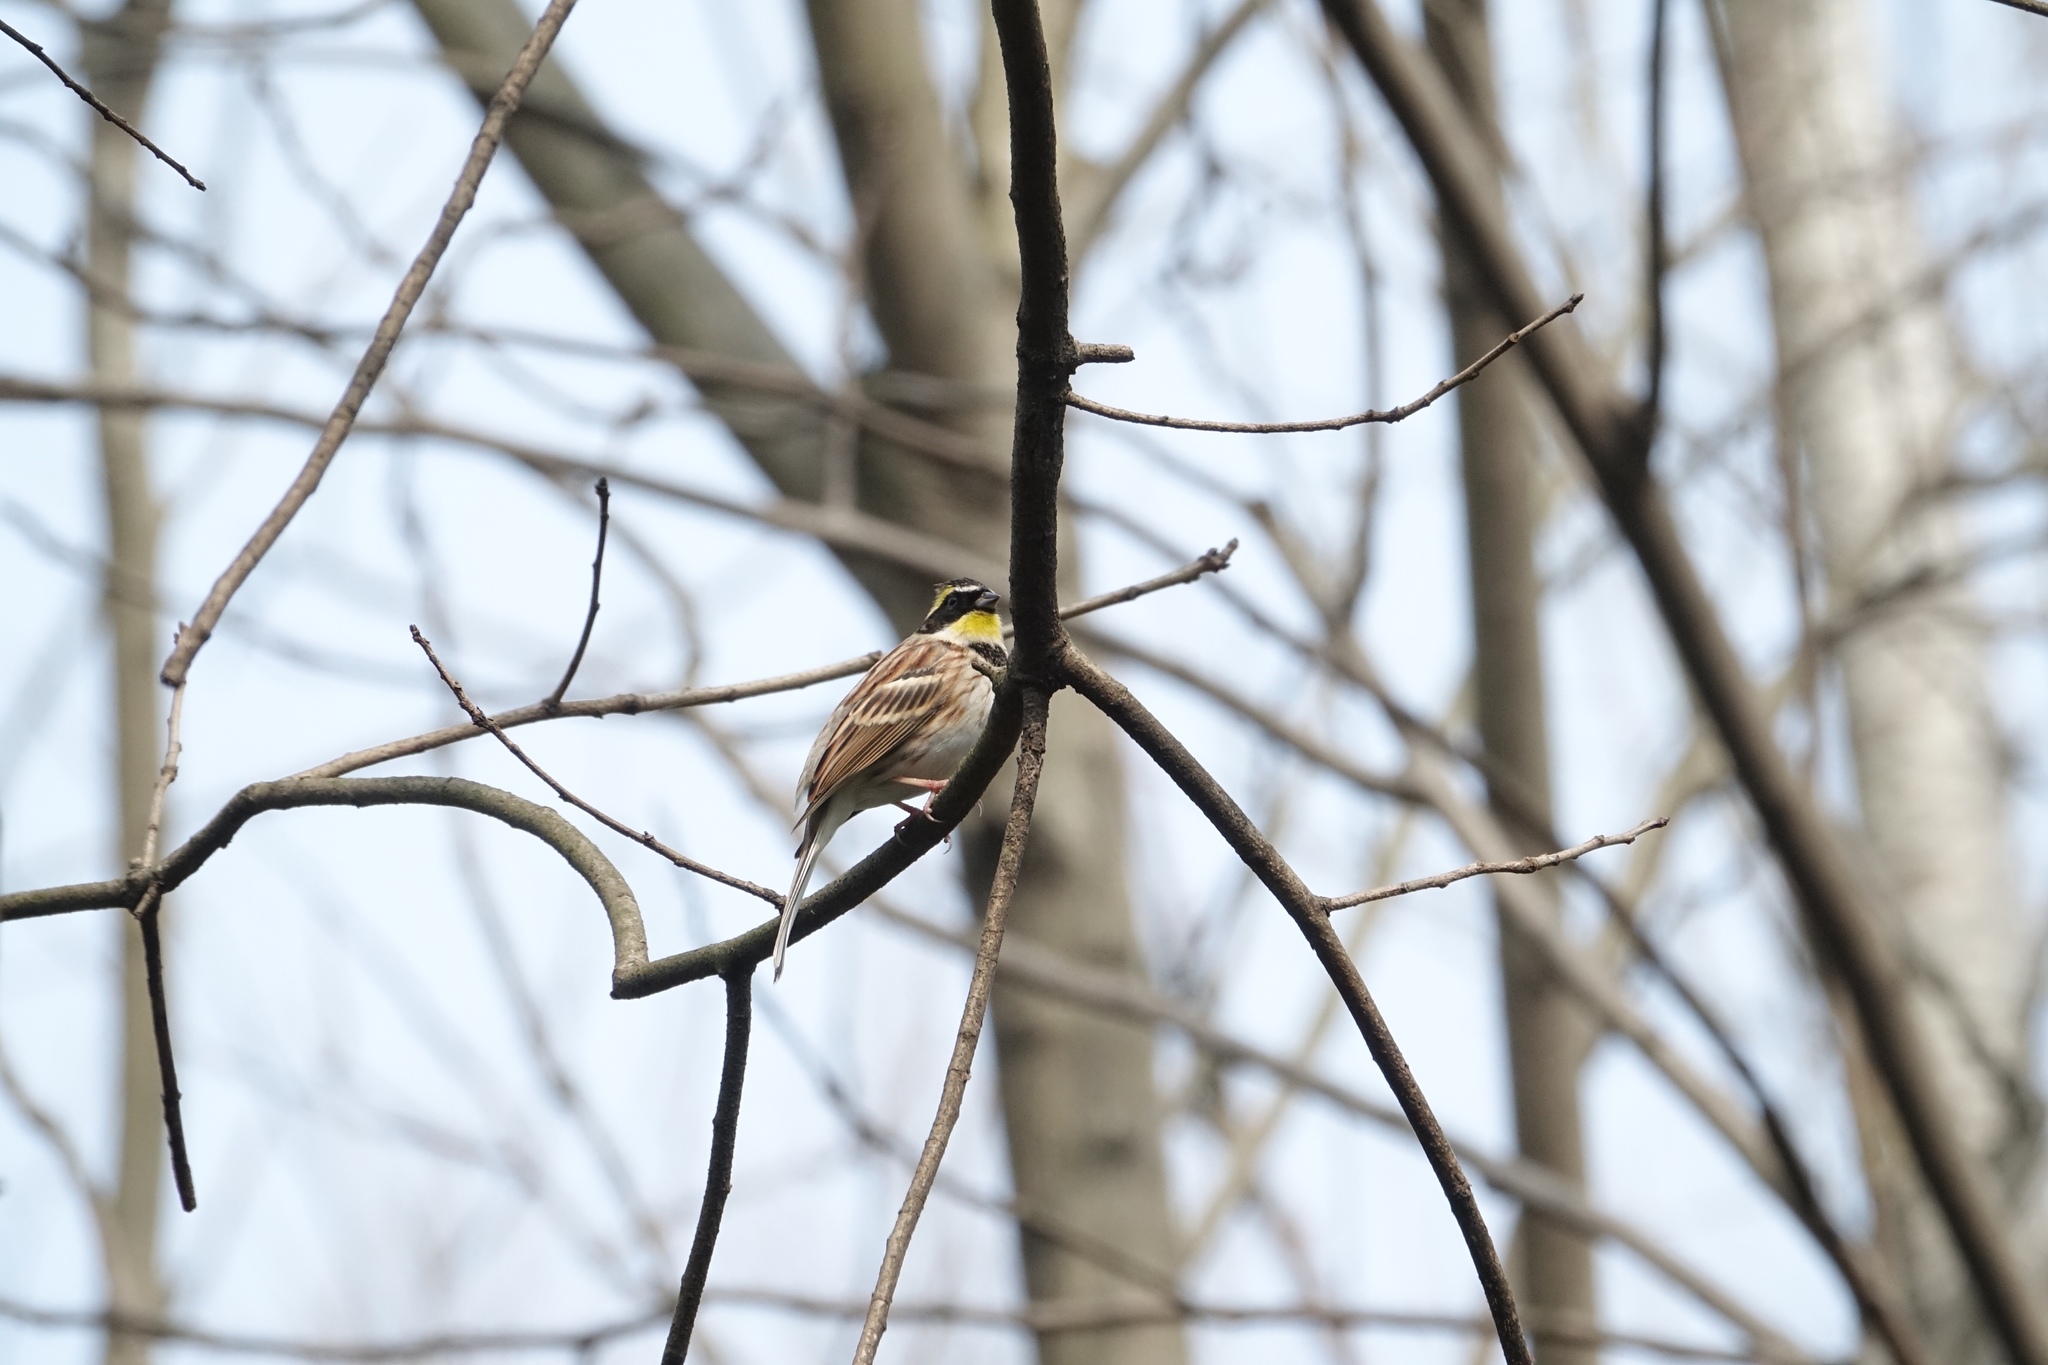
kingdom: Animalia
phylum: Chordata
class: Aves
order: Passeriformes
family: Emberizidae
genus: Emberiza
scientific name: Emberiza elegans
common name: Yellow-throated bunting
